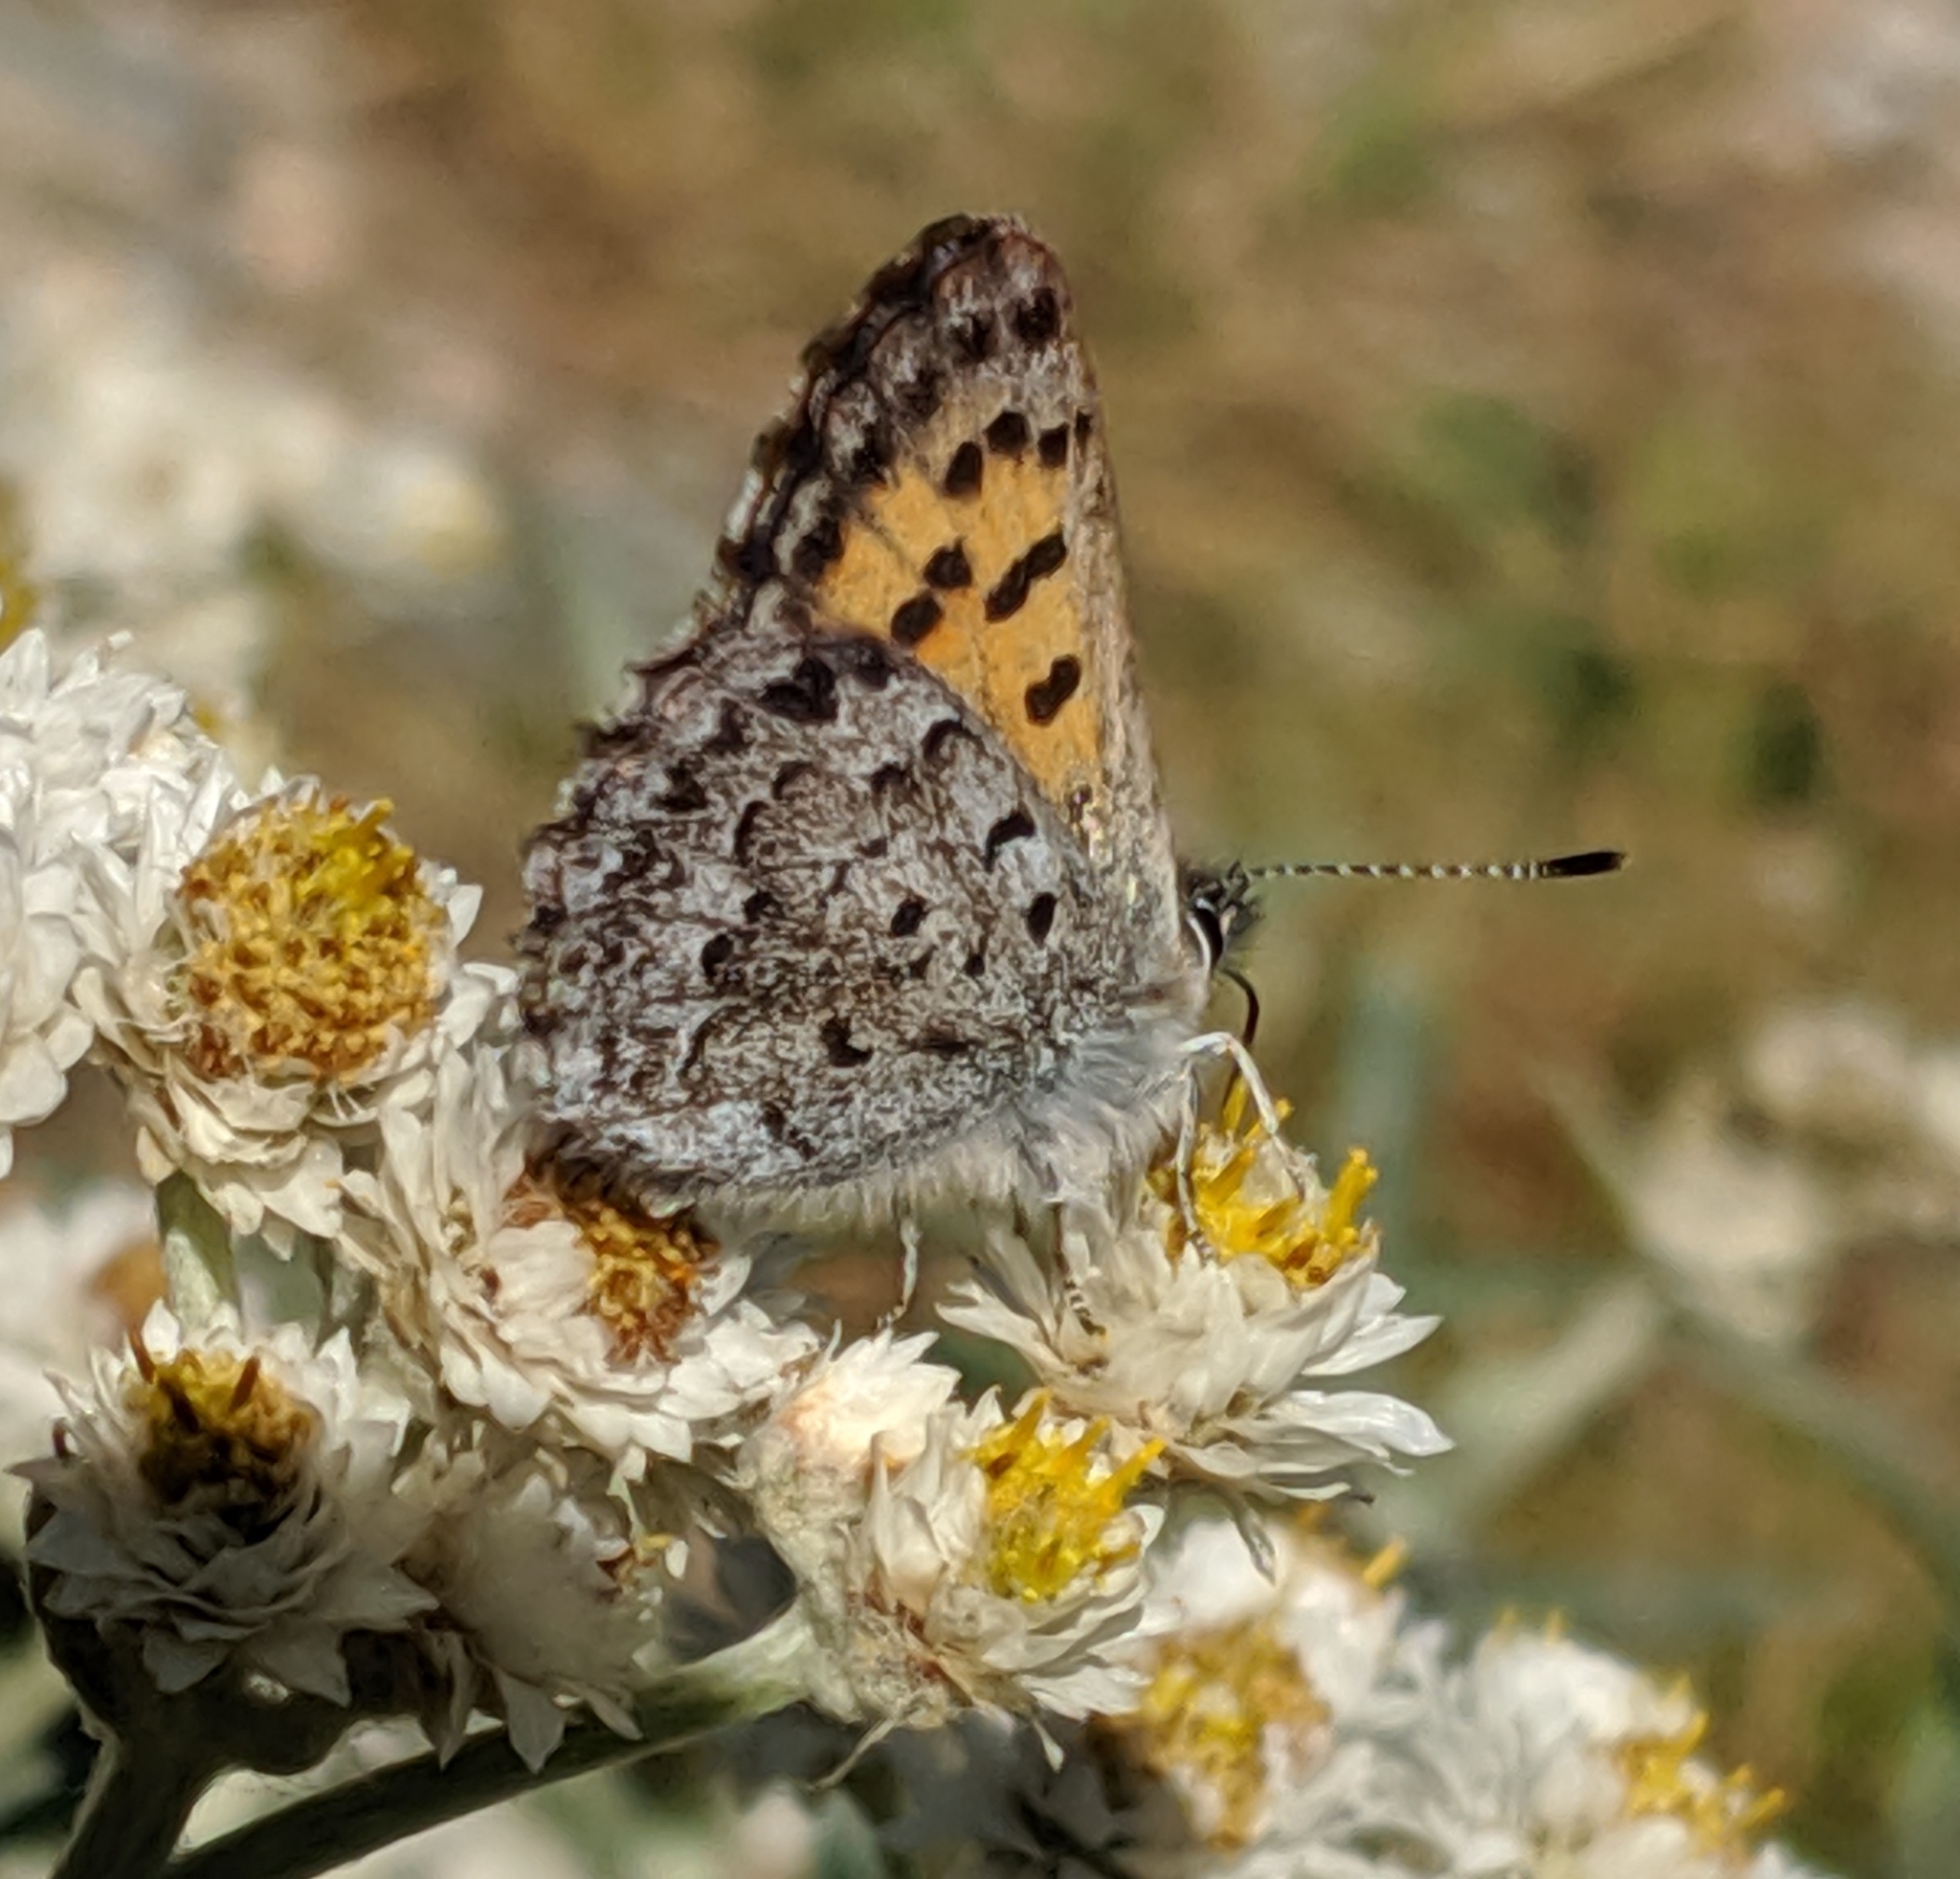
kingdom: Animalia
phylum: Arthropoda
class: Insecta
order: Lepidoptera
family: Lycaenidae
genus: Tharsalea
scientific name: Tharsalea mariposa
